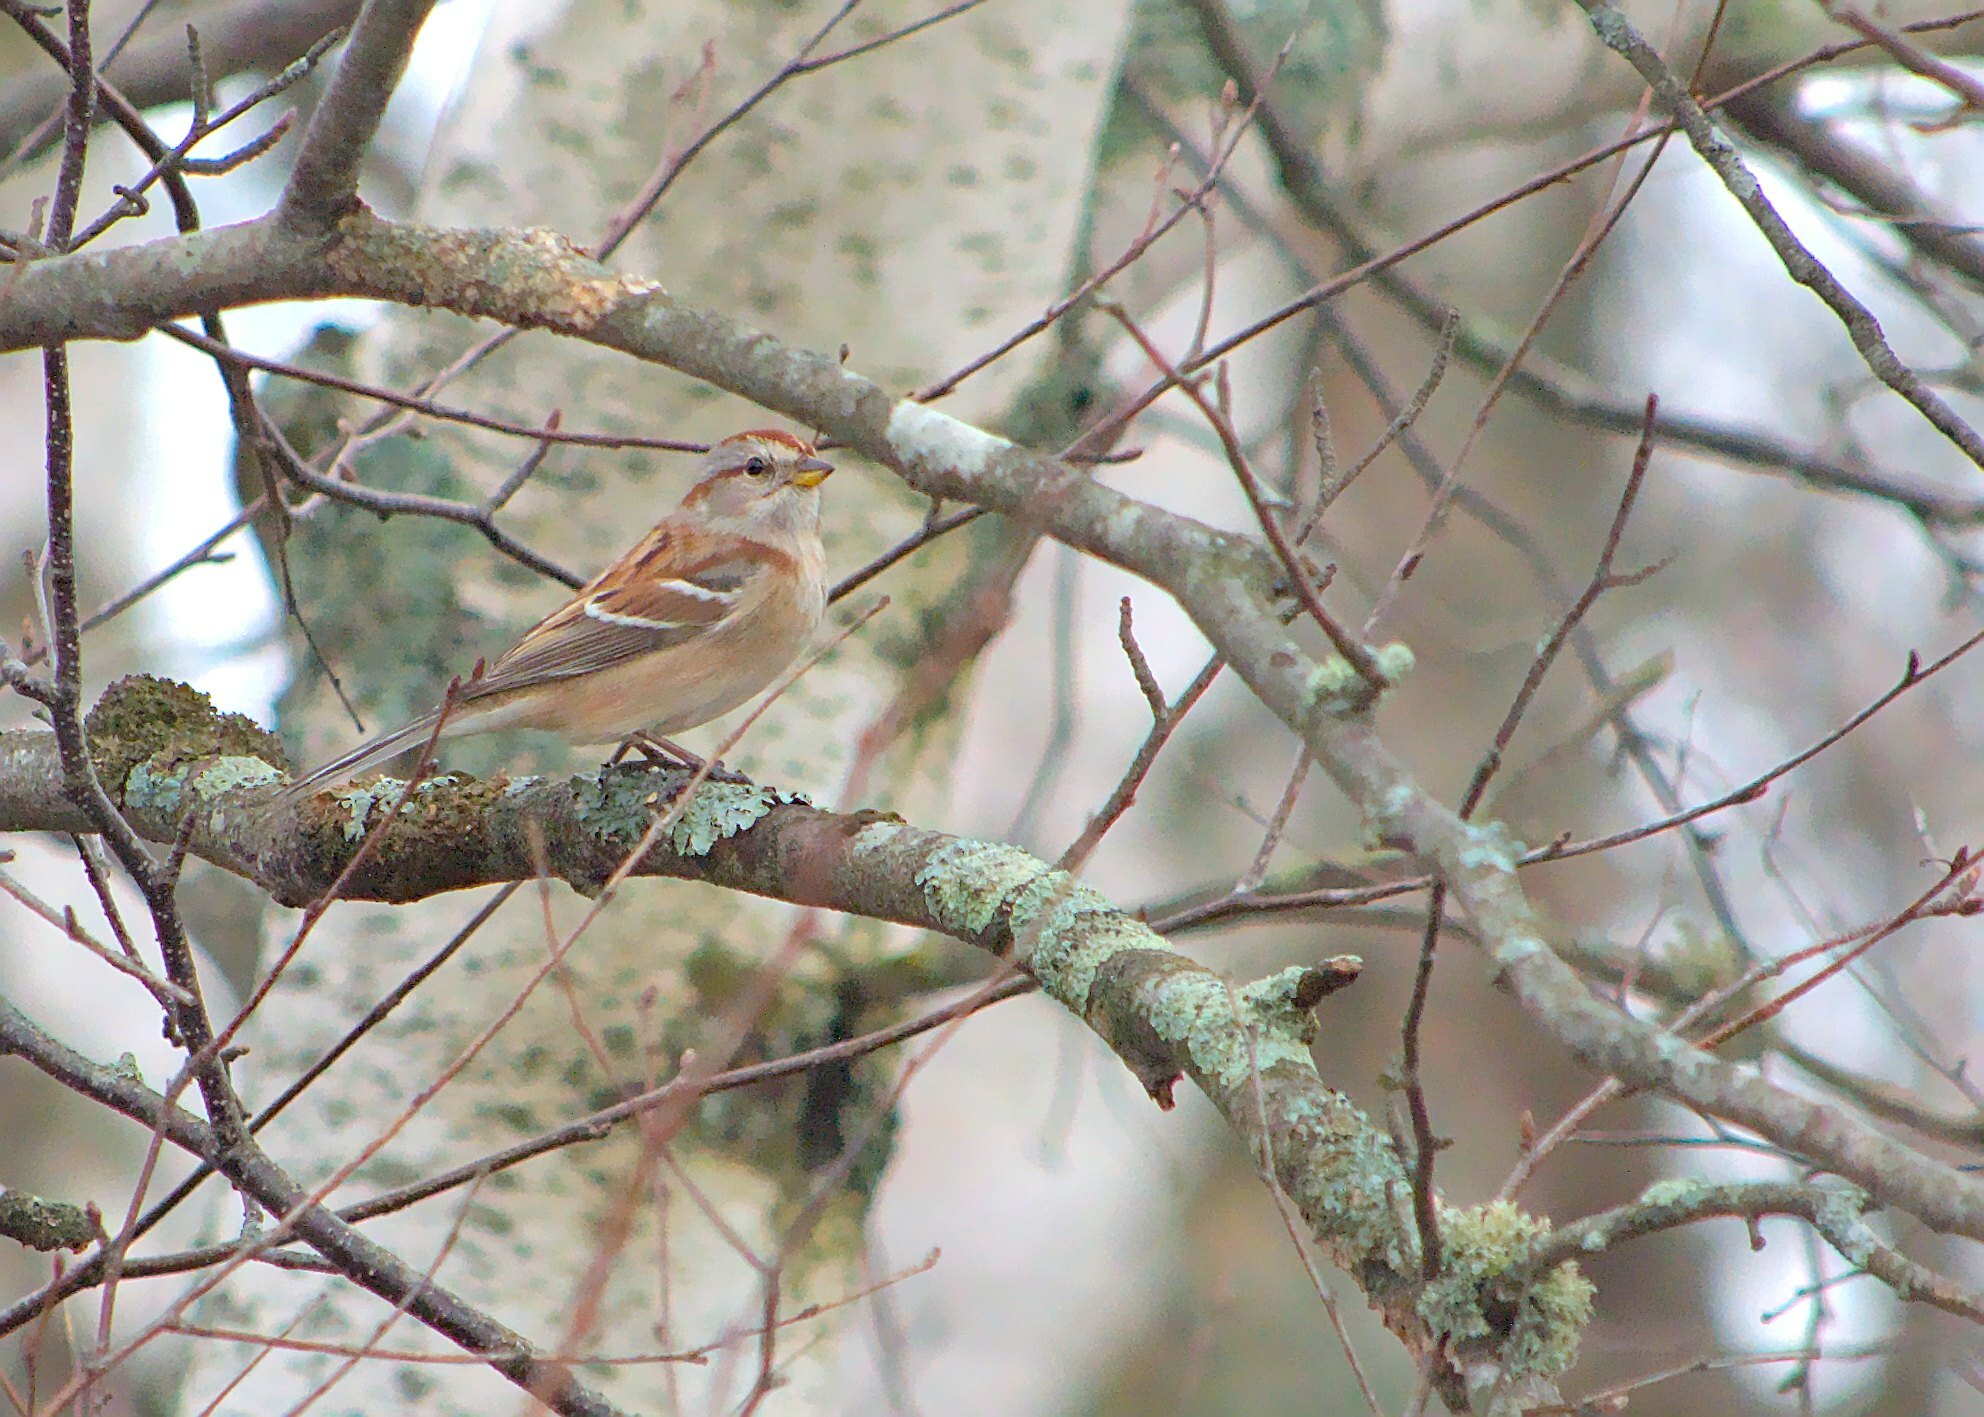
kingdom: Animalia
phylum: Chordata
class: Aves
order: Passeriformes
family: Passerellidae
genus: Spizelloides
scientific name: Spizelloides arborea
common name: American tree sparrow
